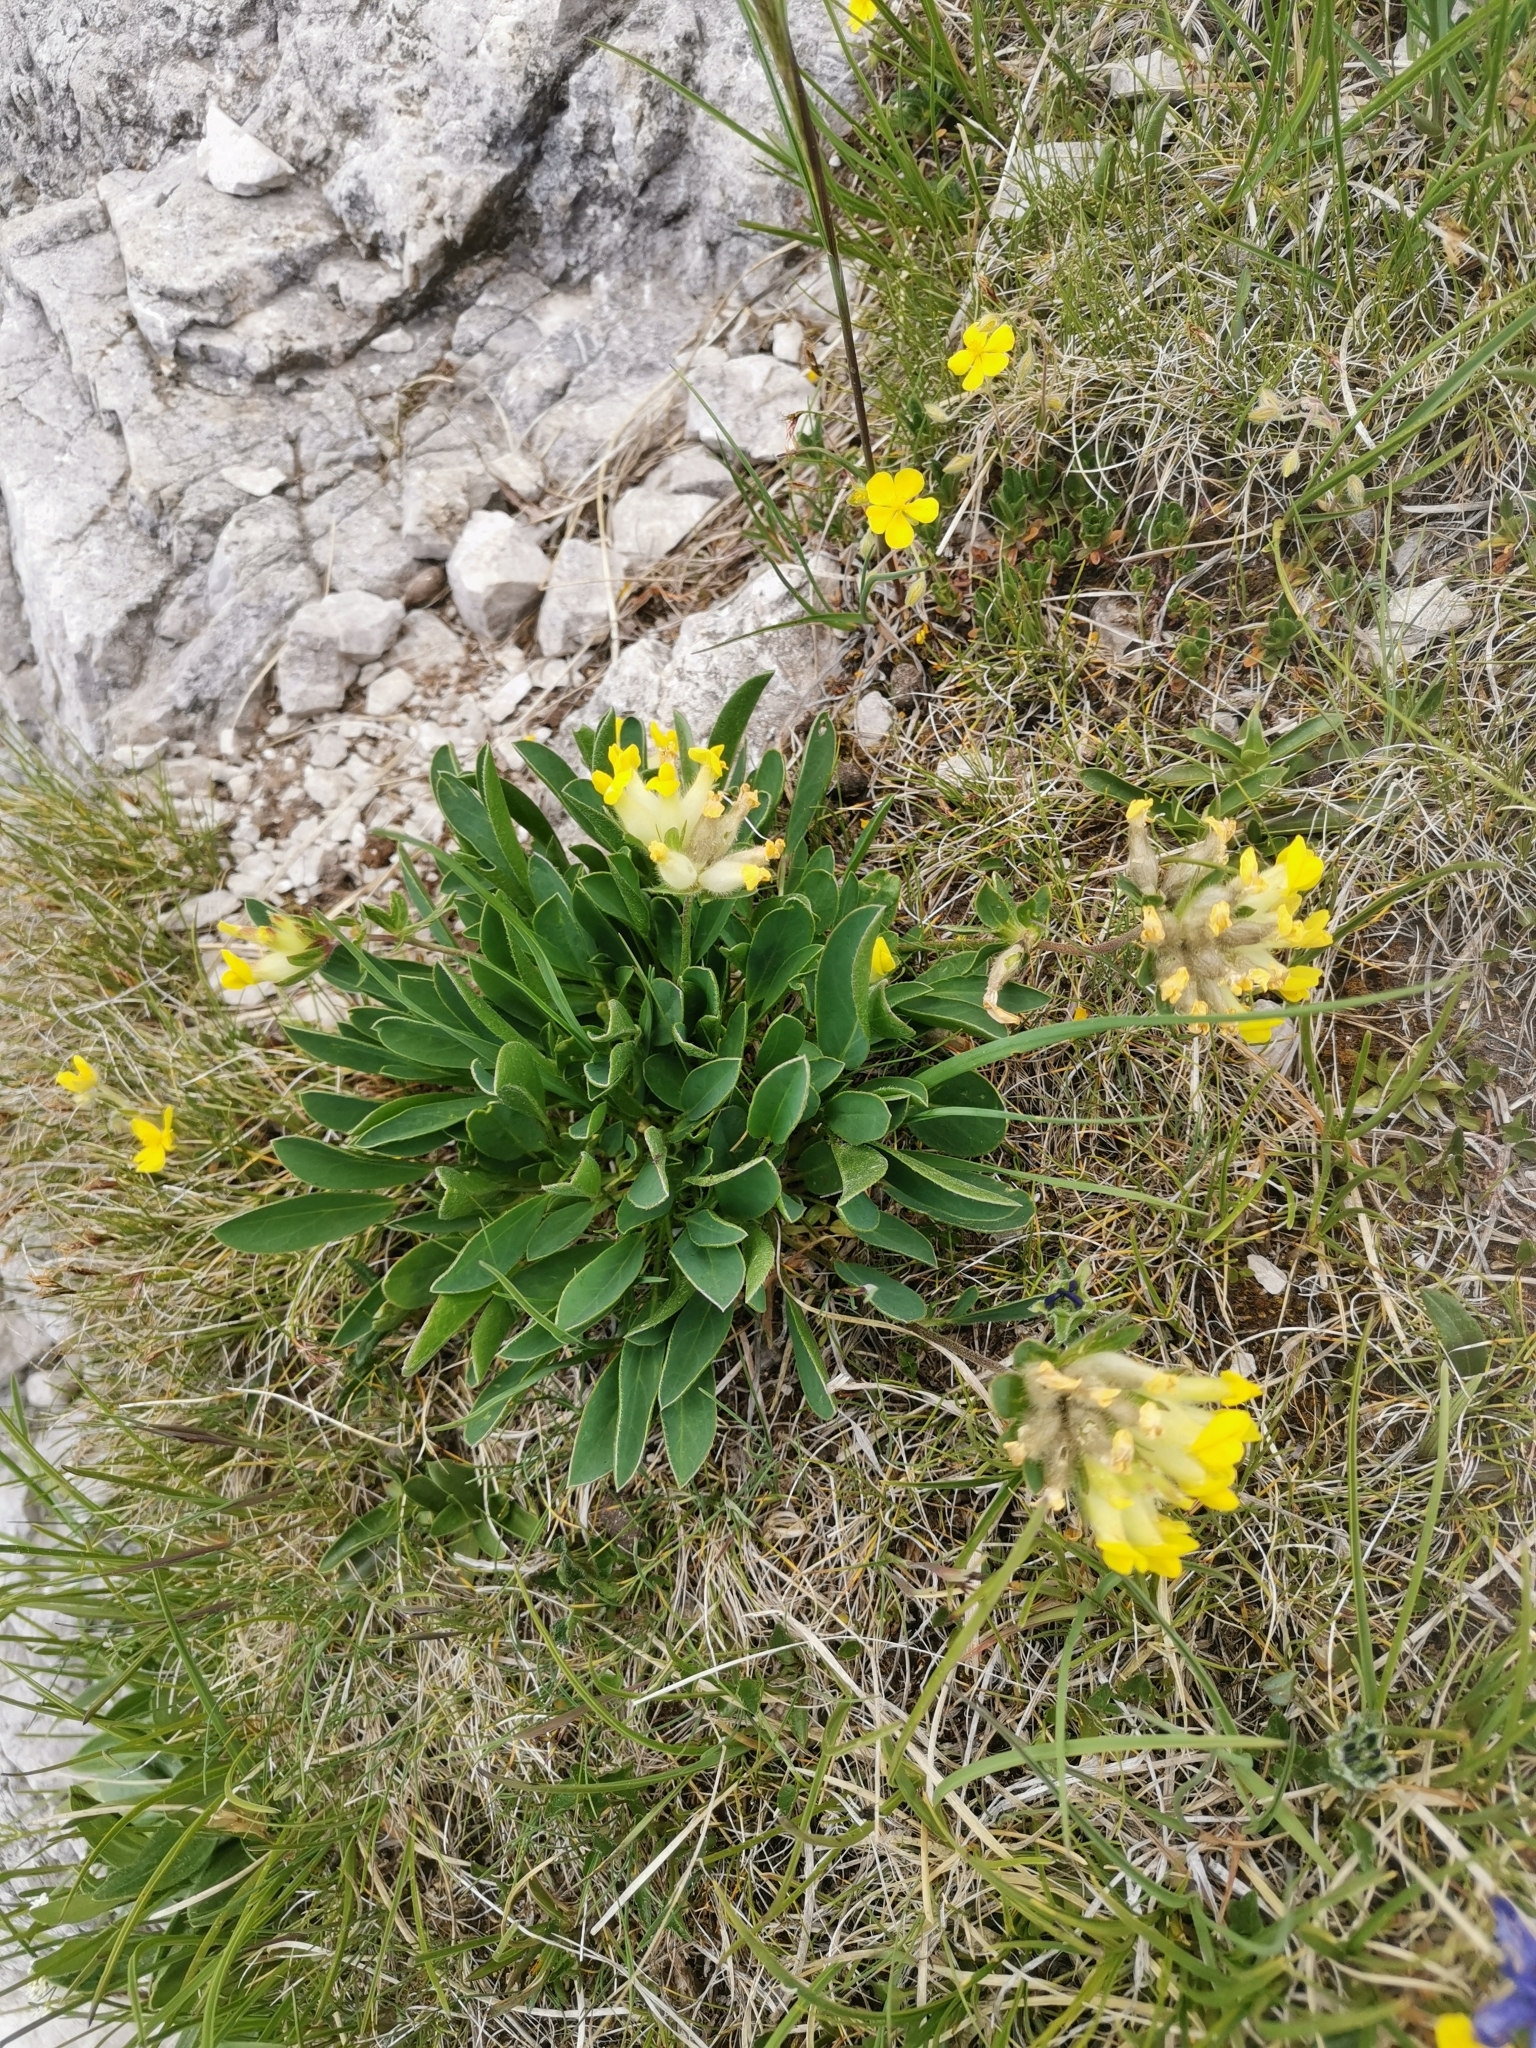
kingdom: Plantae
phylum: Tracheophyta
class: Magnoliopsida
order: Fabales
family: Fabaceae
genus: Anthyllis
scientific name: Anthyllis vulneraria
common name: Kidney vetch
